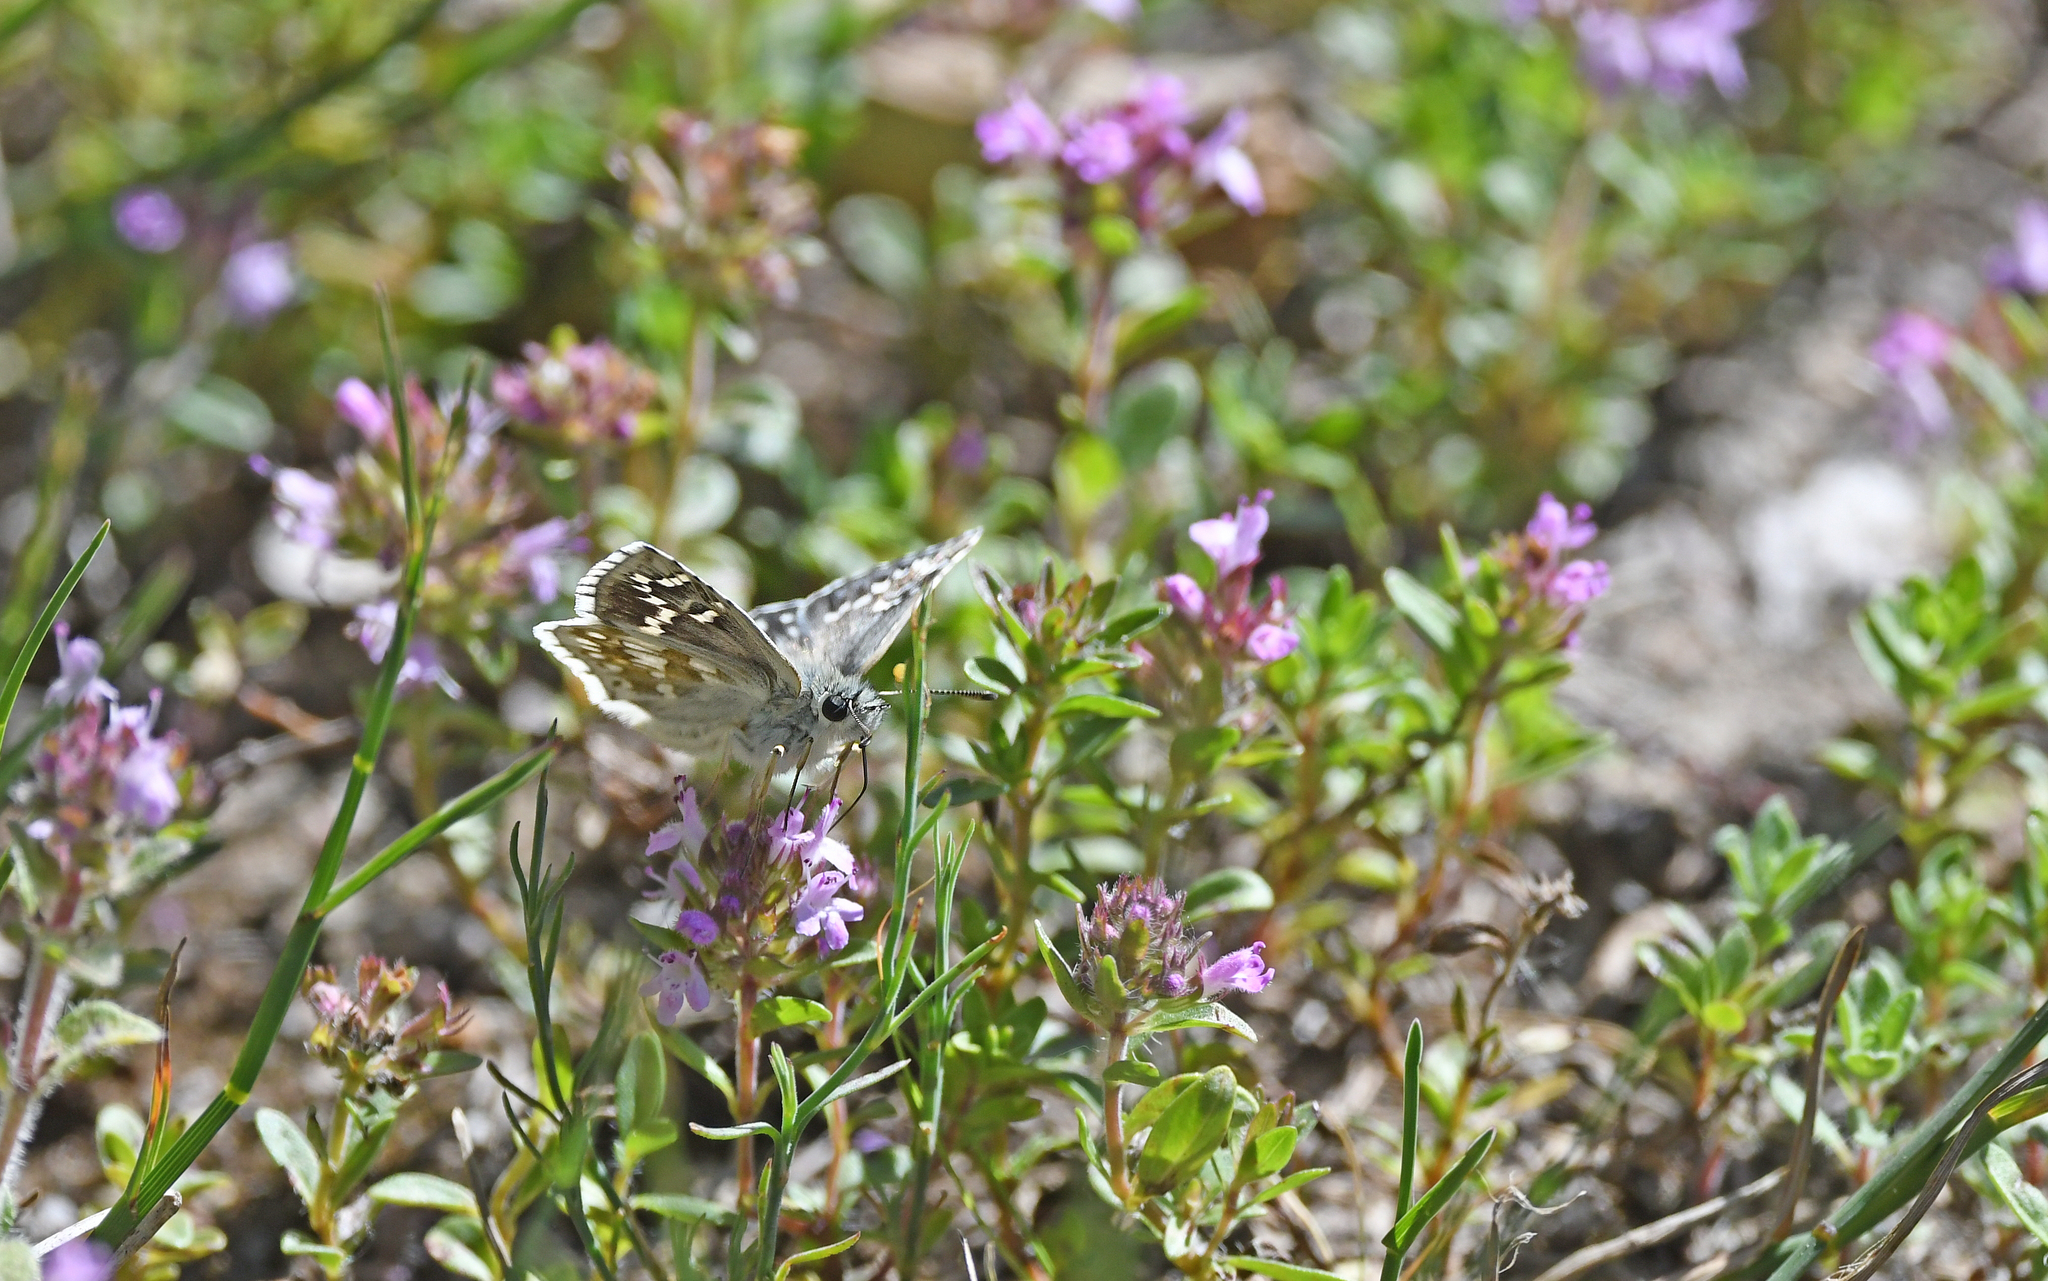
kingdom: Animalia
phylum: Arthropoda
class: Insecta
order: Lepidoptera
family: Hesperiidae
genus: Pyrgus
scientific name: Pyrgus fritillarius
